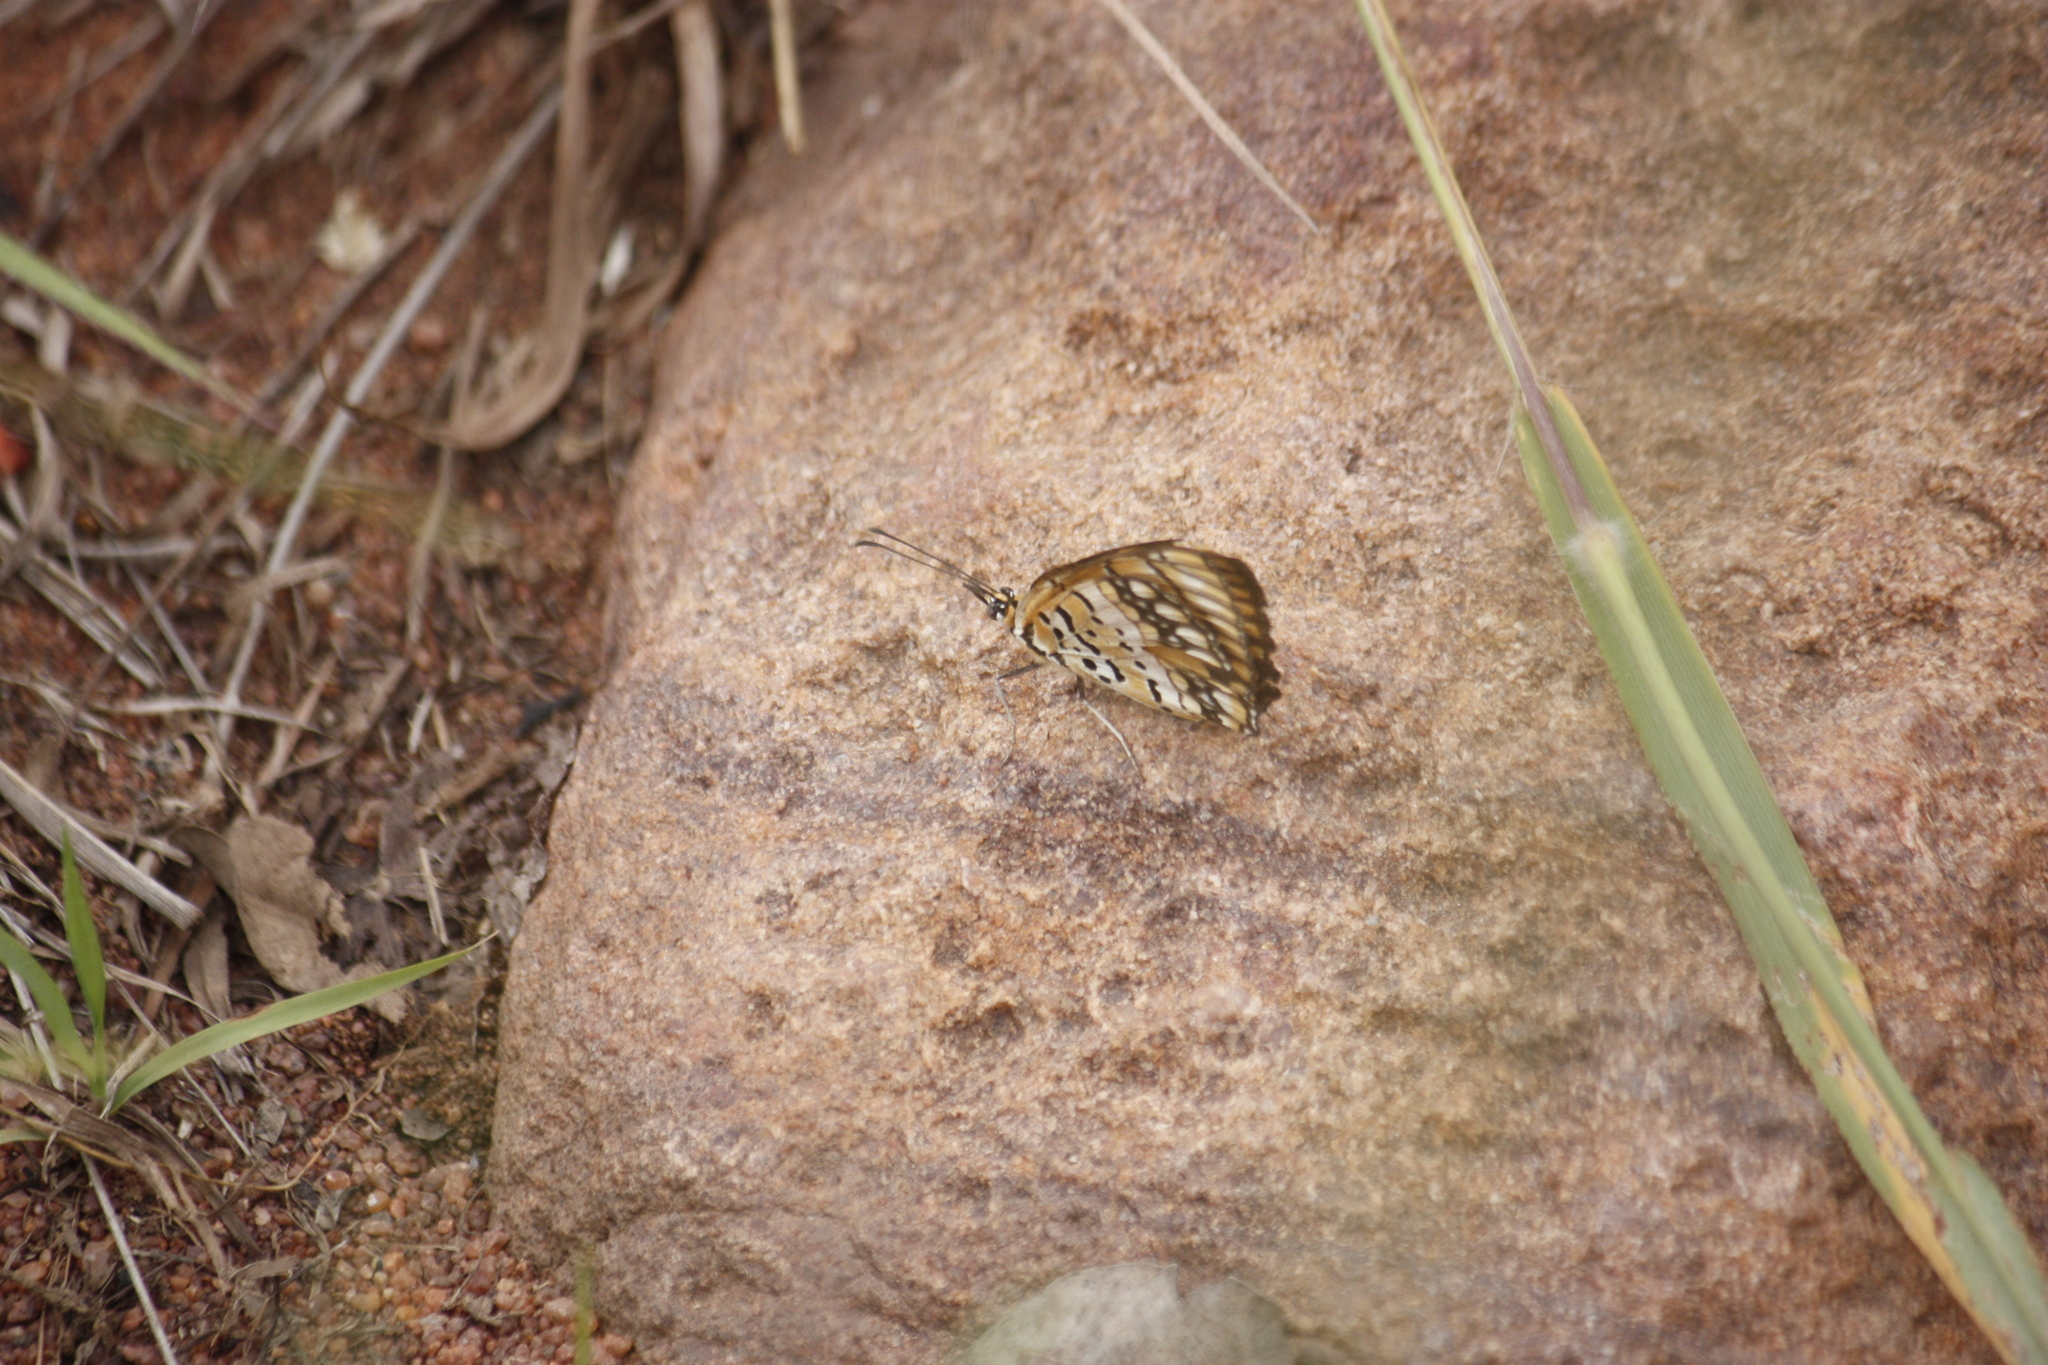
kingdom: Animalia
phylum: Arthropoda
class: Insecta
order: Lepidoptera
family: Nymphalidae
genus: Byblia
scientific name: Byblia ilithyia
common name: Spotted joker
